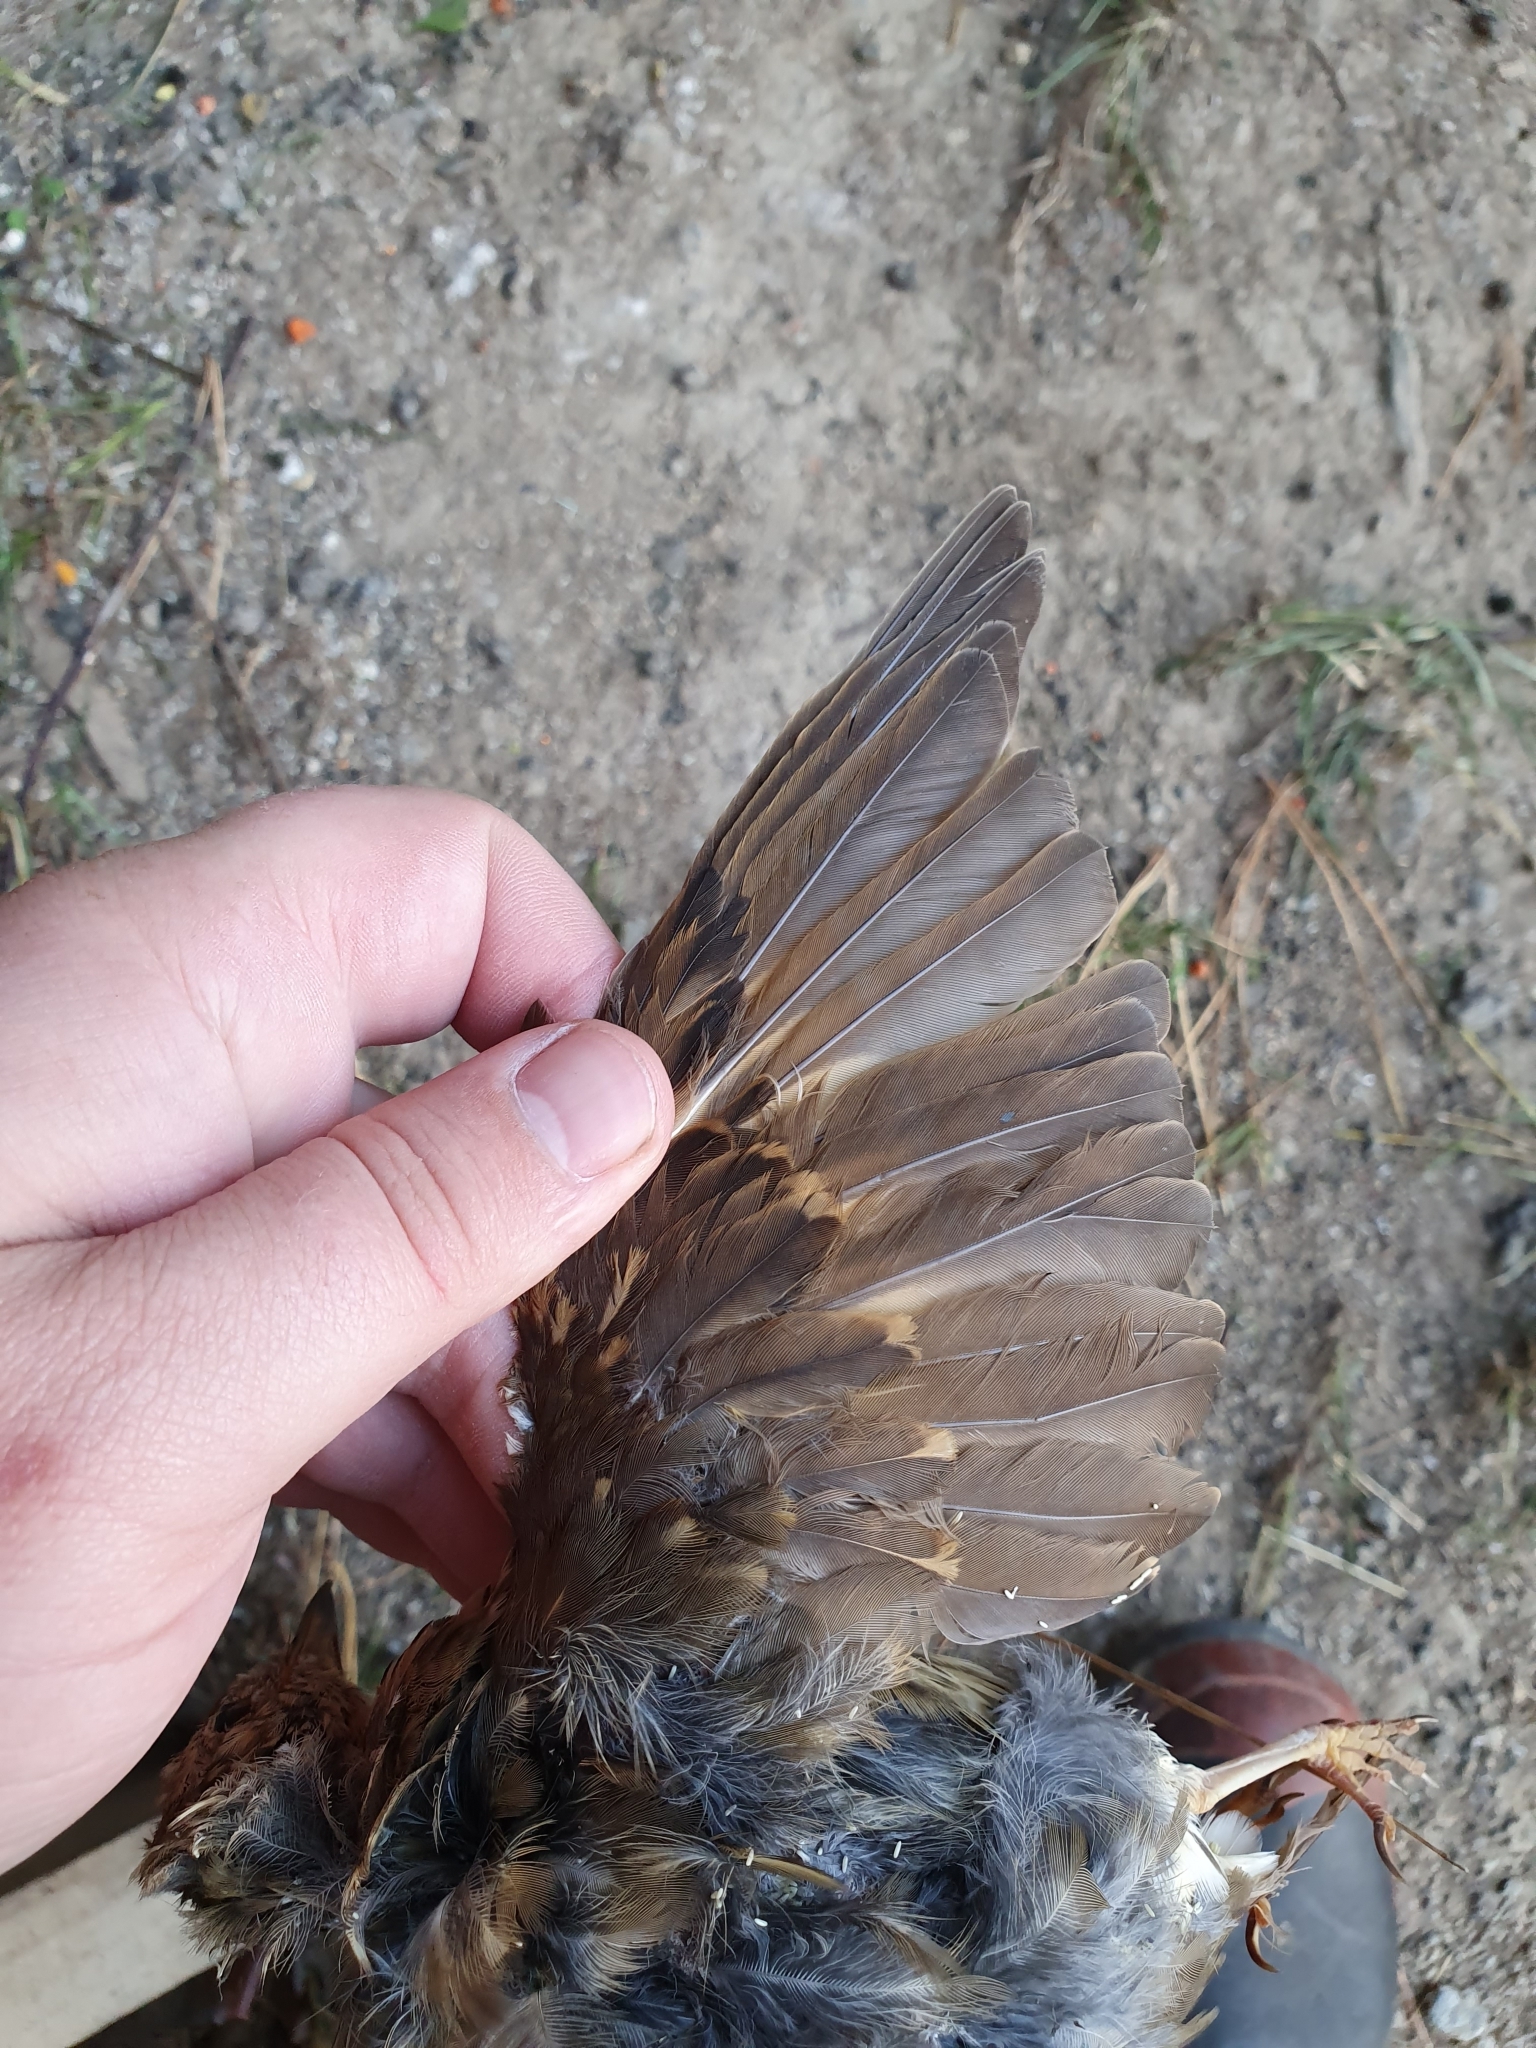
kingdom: Animalia
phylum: Chordata
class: Aves
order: Passeriformes
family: Turdidae
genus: Turdus
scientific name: Turdus philomelos
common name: Song thrush
